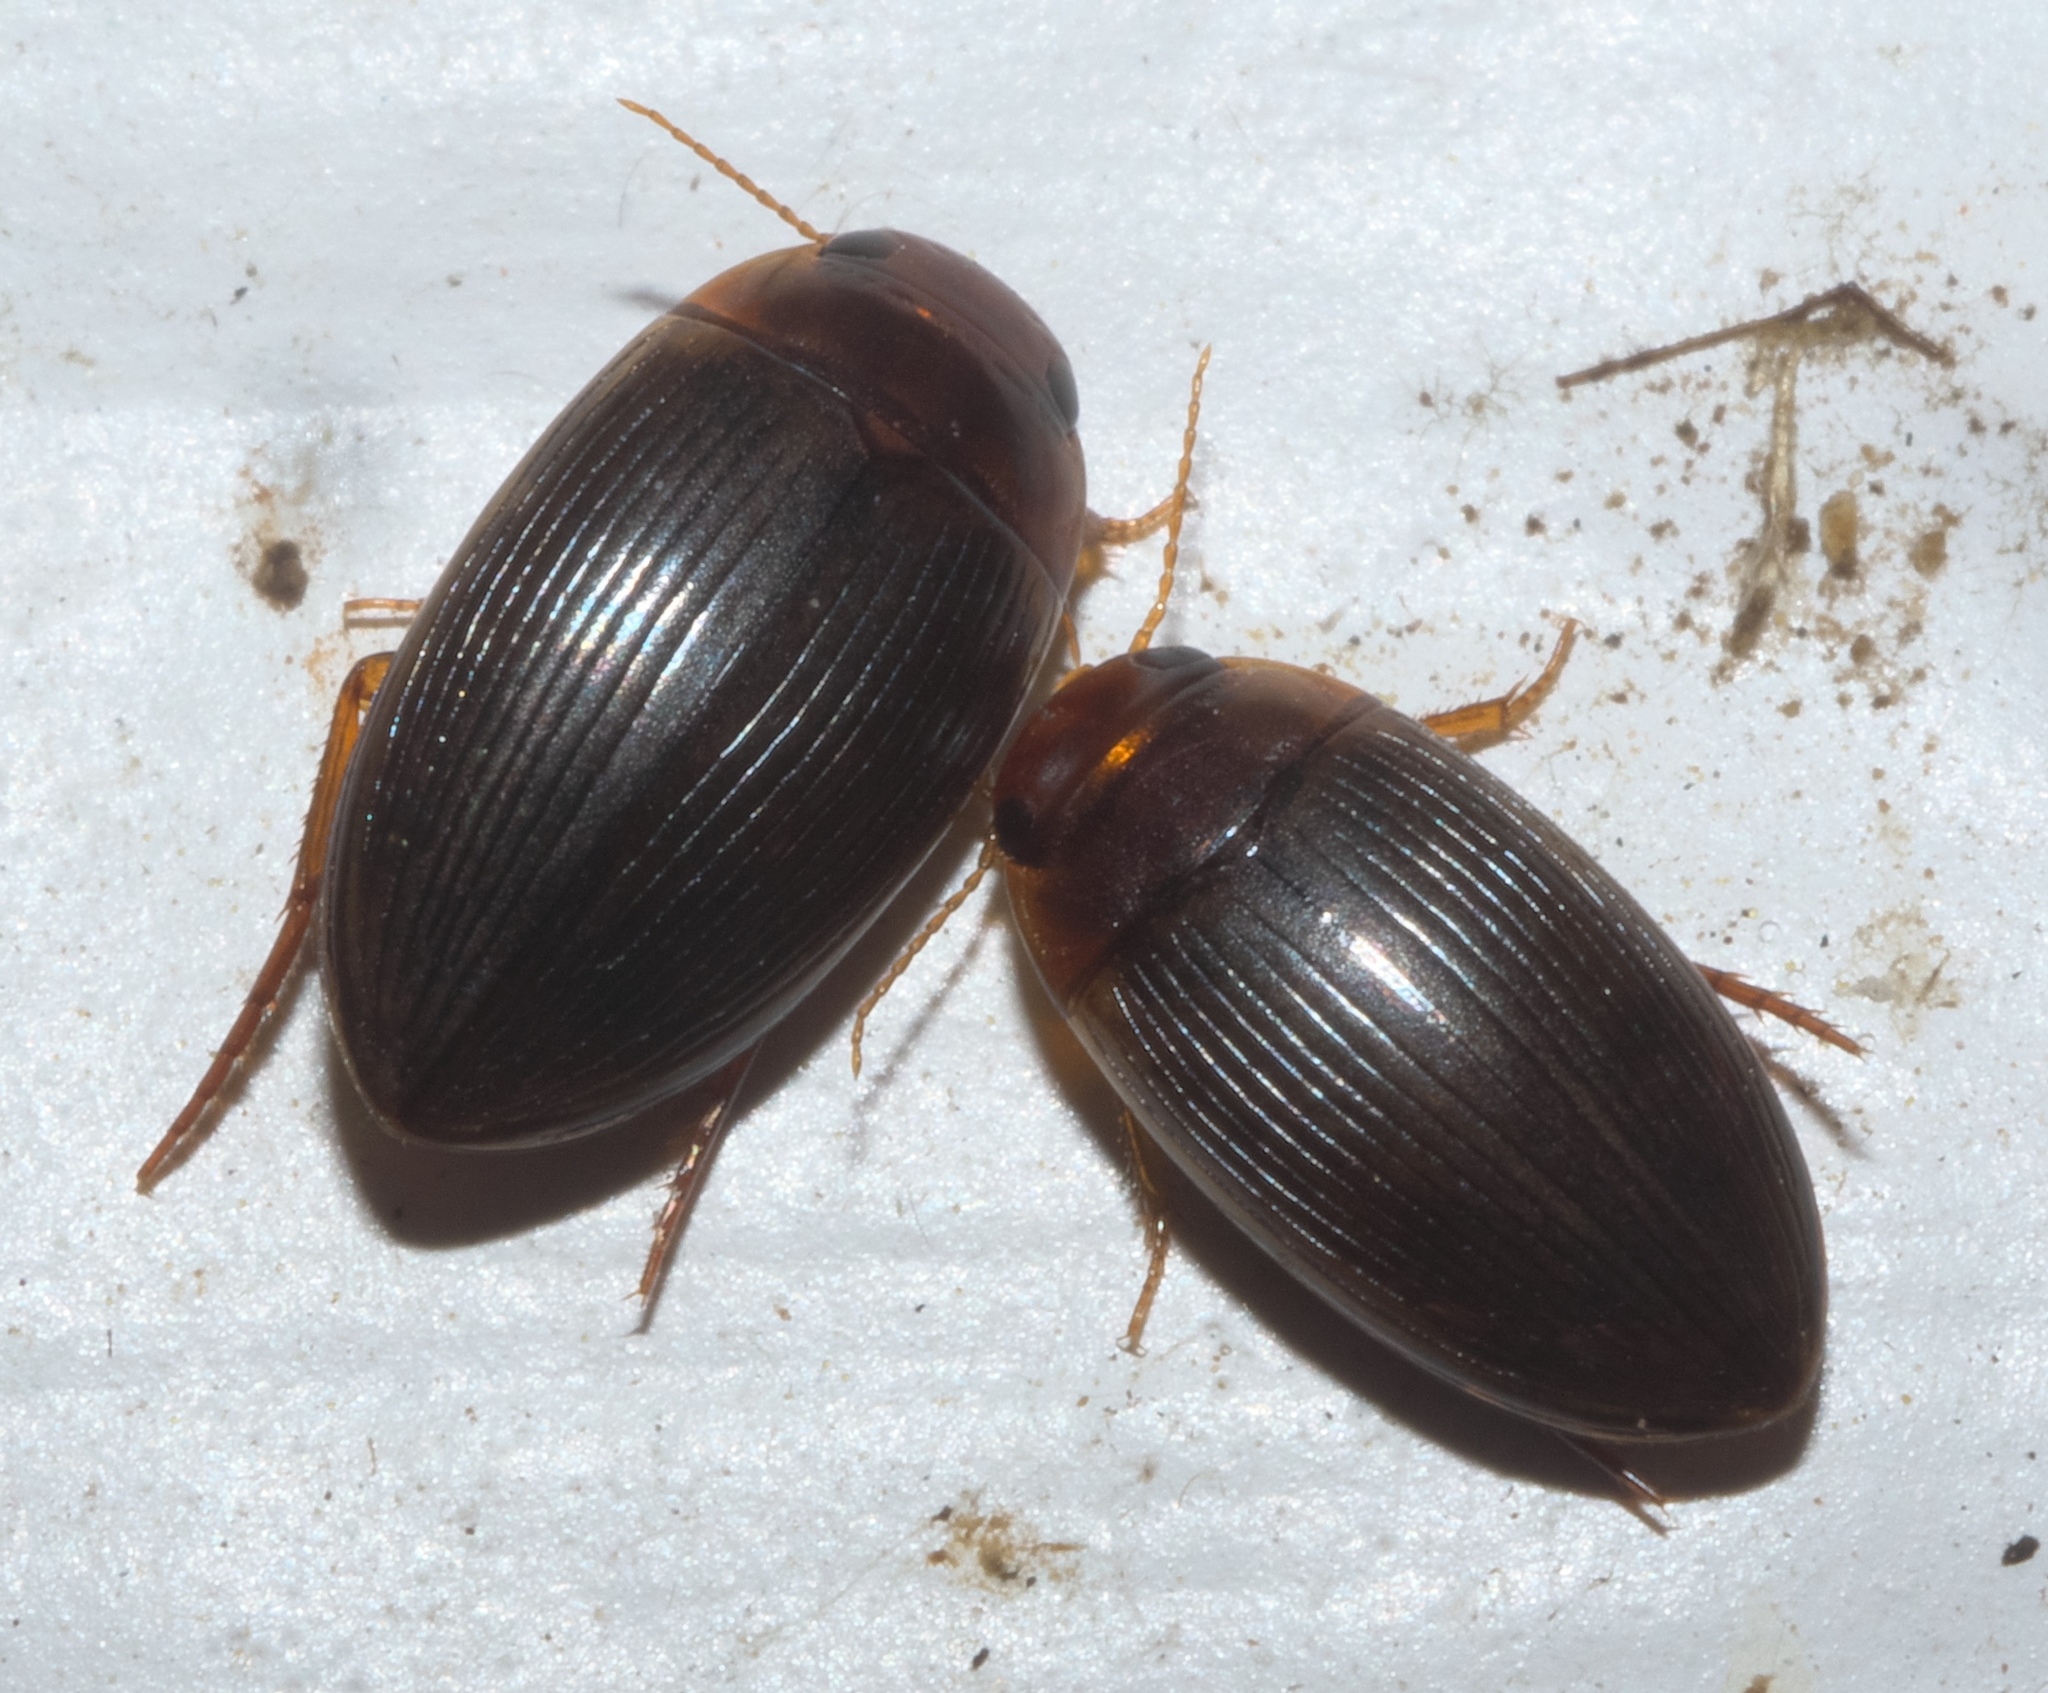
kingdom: Animalia
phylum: Arthropoda
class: Insecta
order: Coleoptera
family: Dytiscidae
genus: Copelatus
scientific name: Copelatus glyphicus
